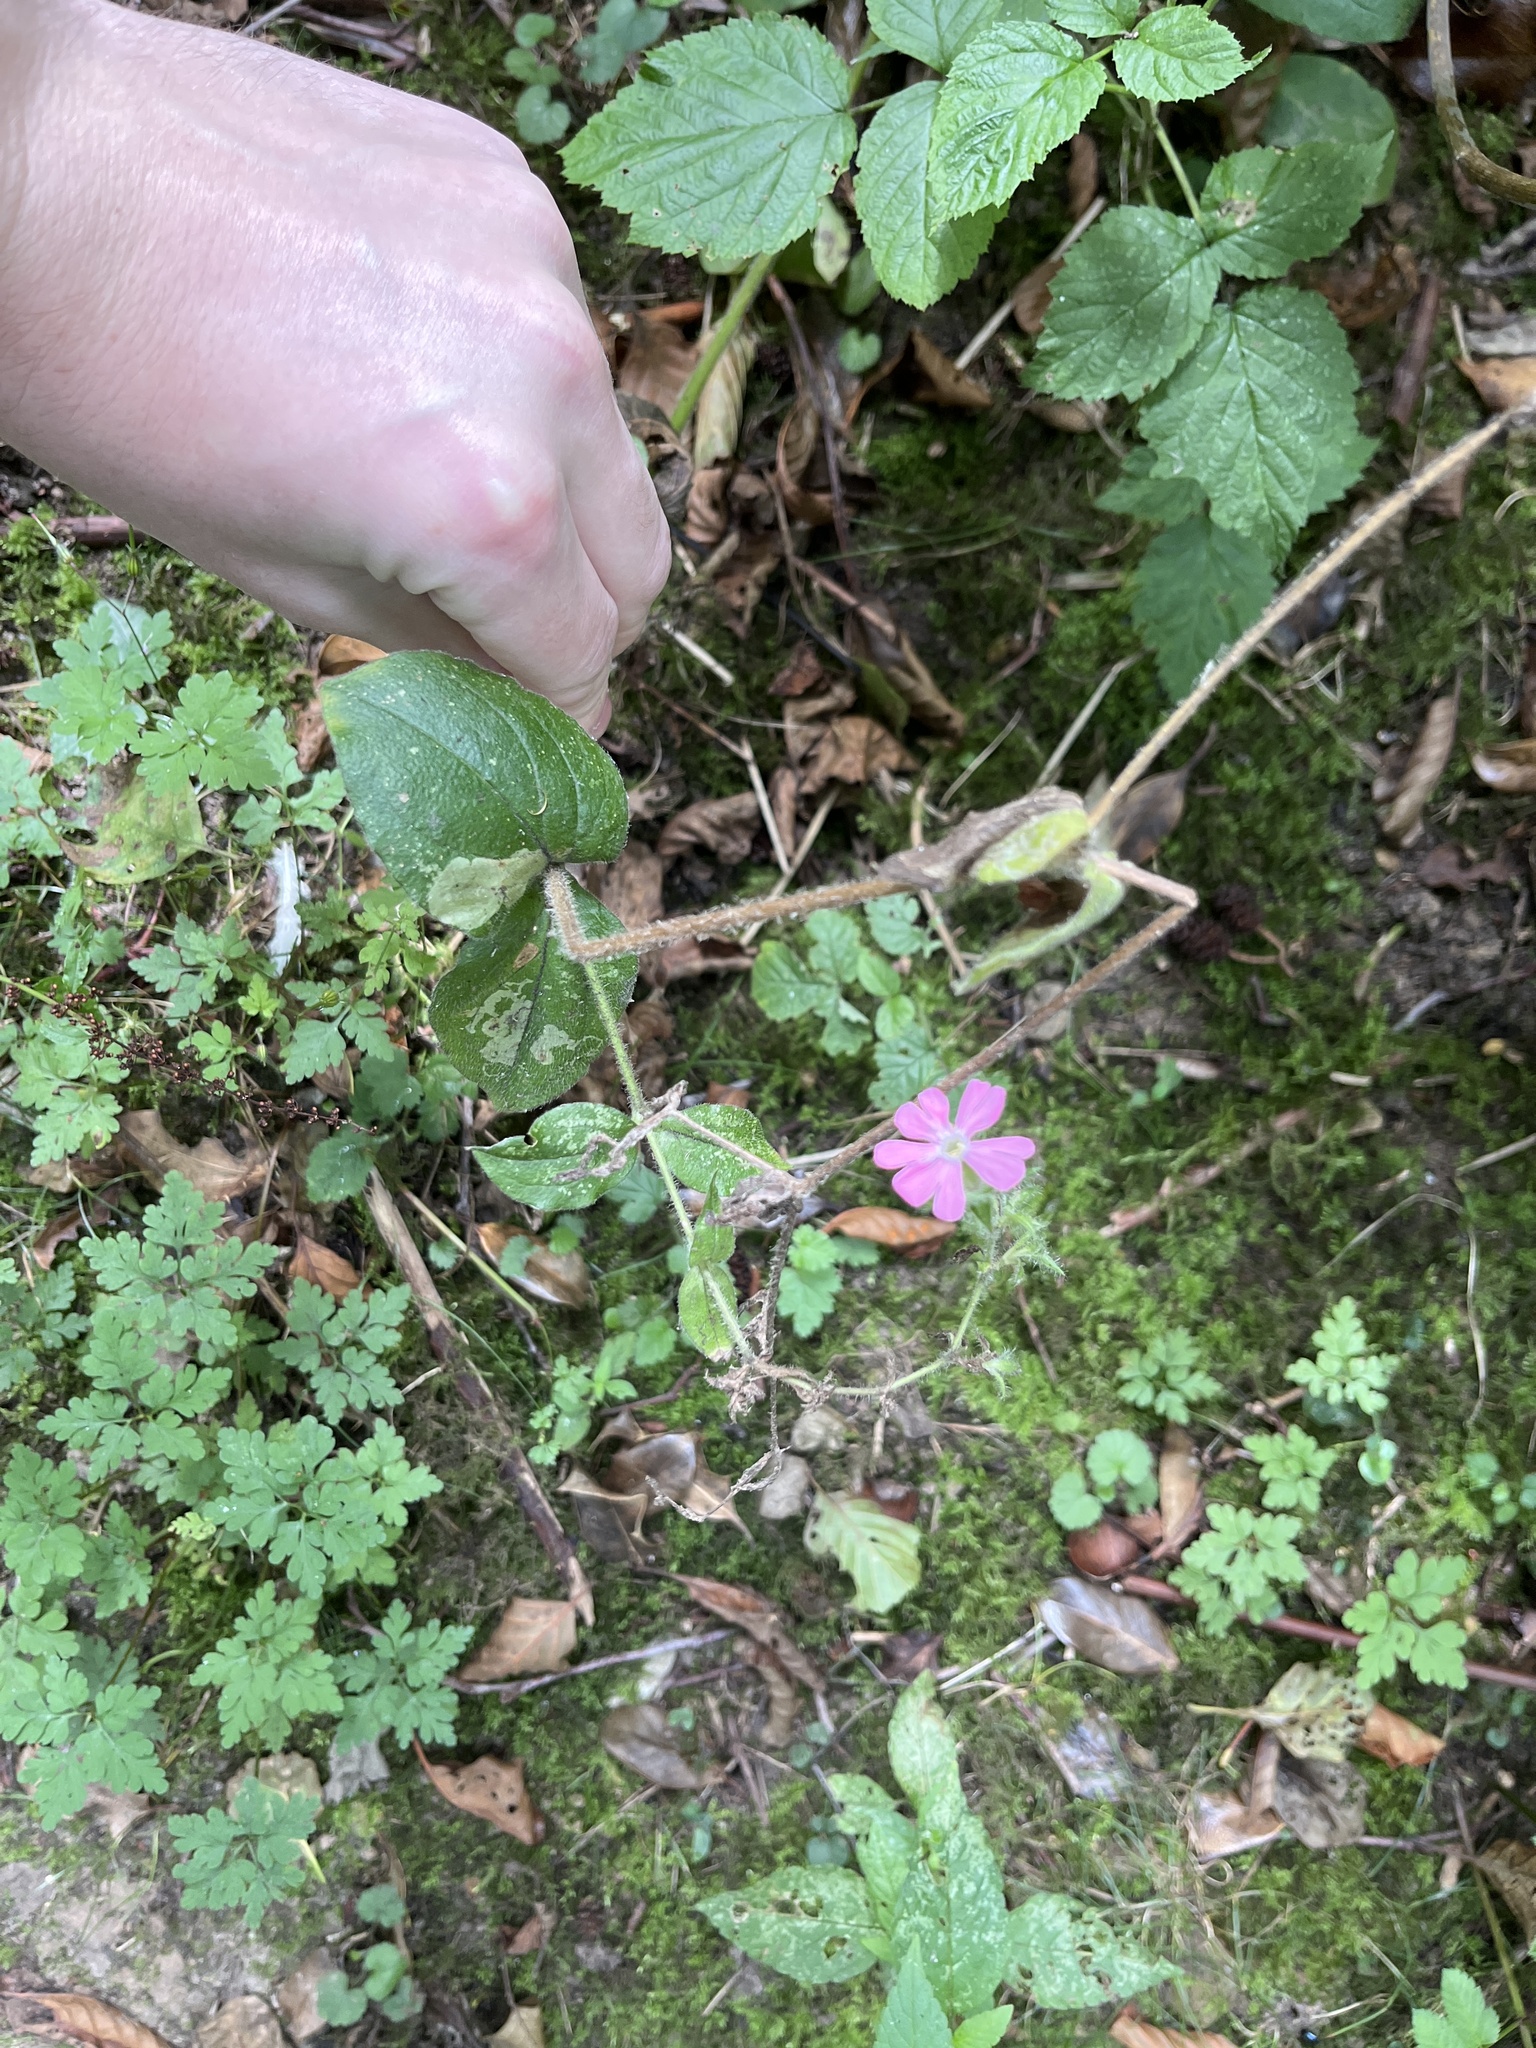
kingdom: Plantae
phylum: Tracheophyta
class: Magnoliopsida
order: Caryophyllales
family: Caryophyllaceae
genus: Silene
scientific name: Silene dioica
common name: Red campion
